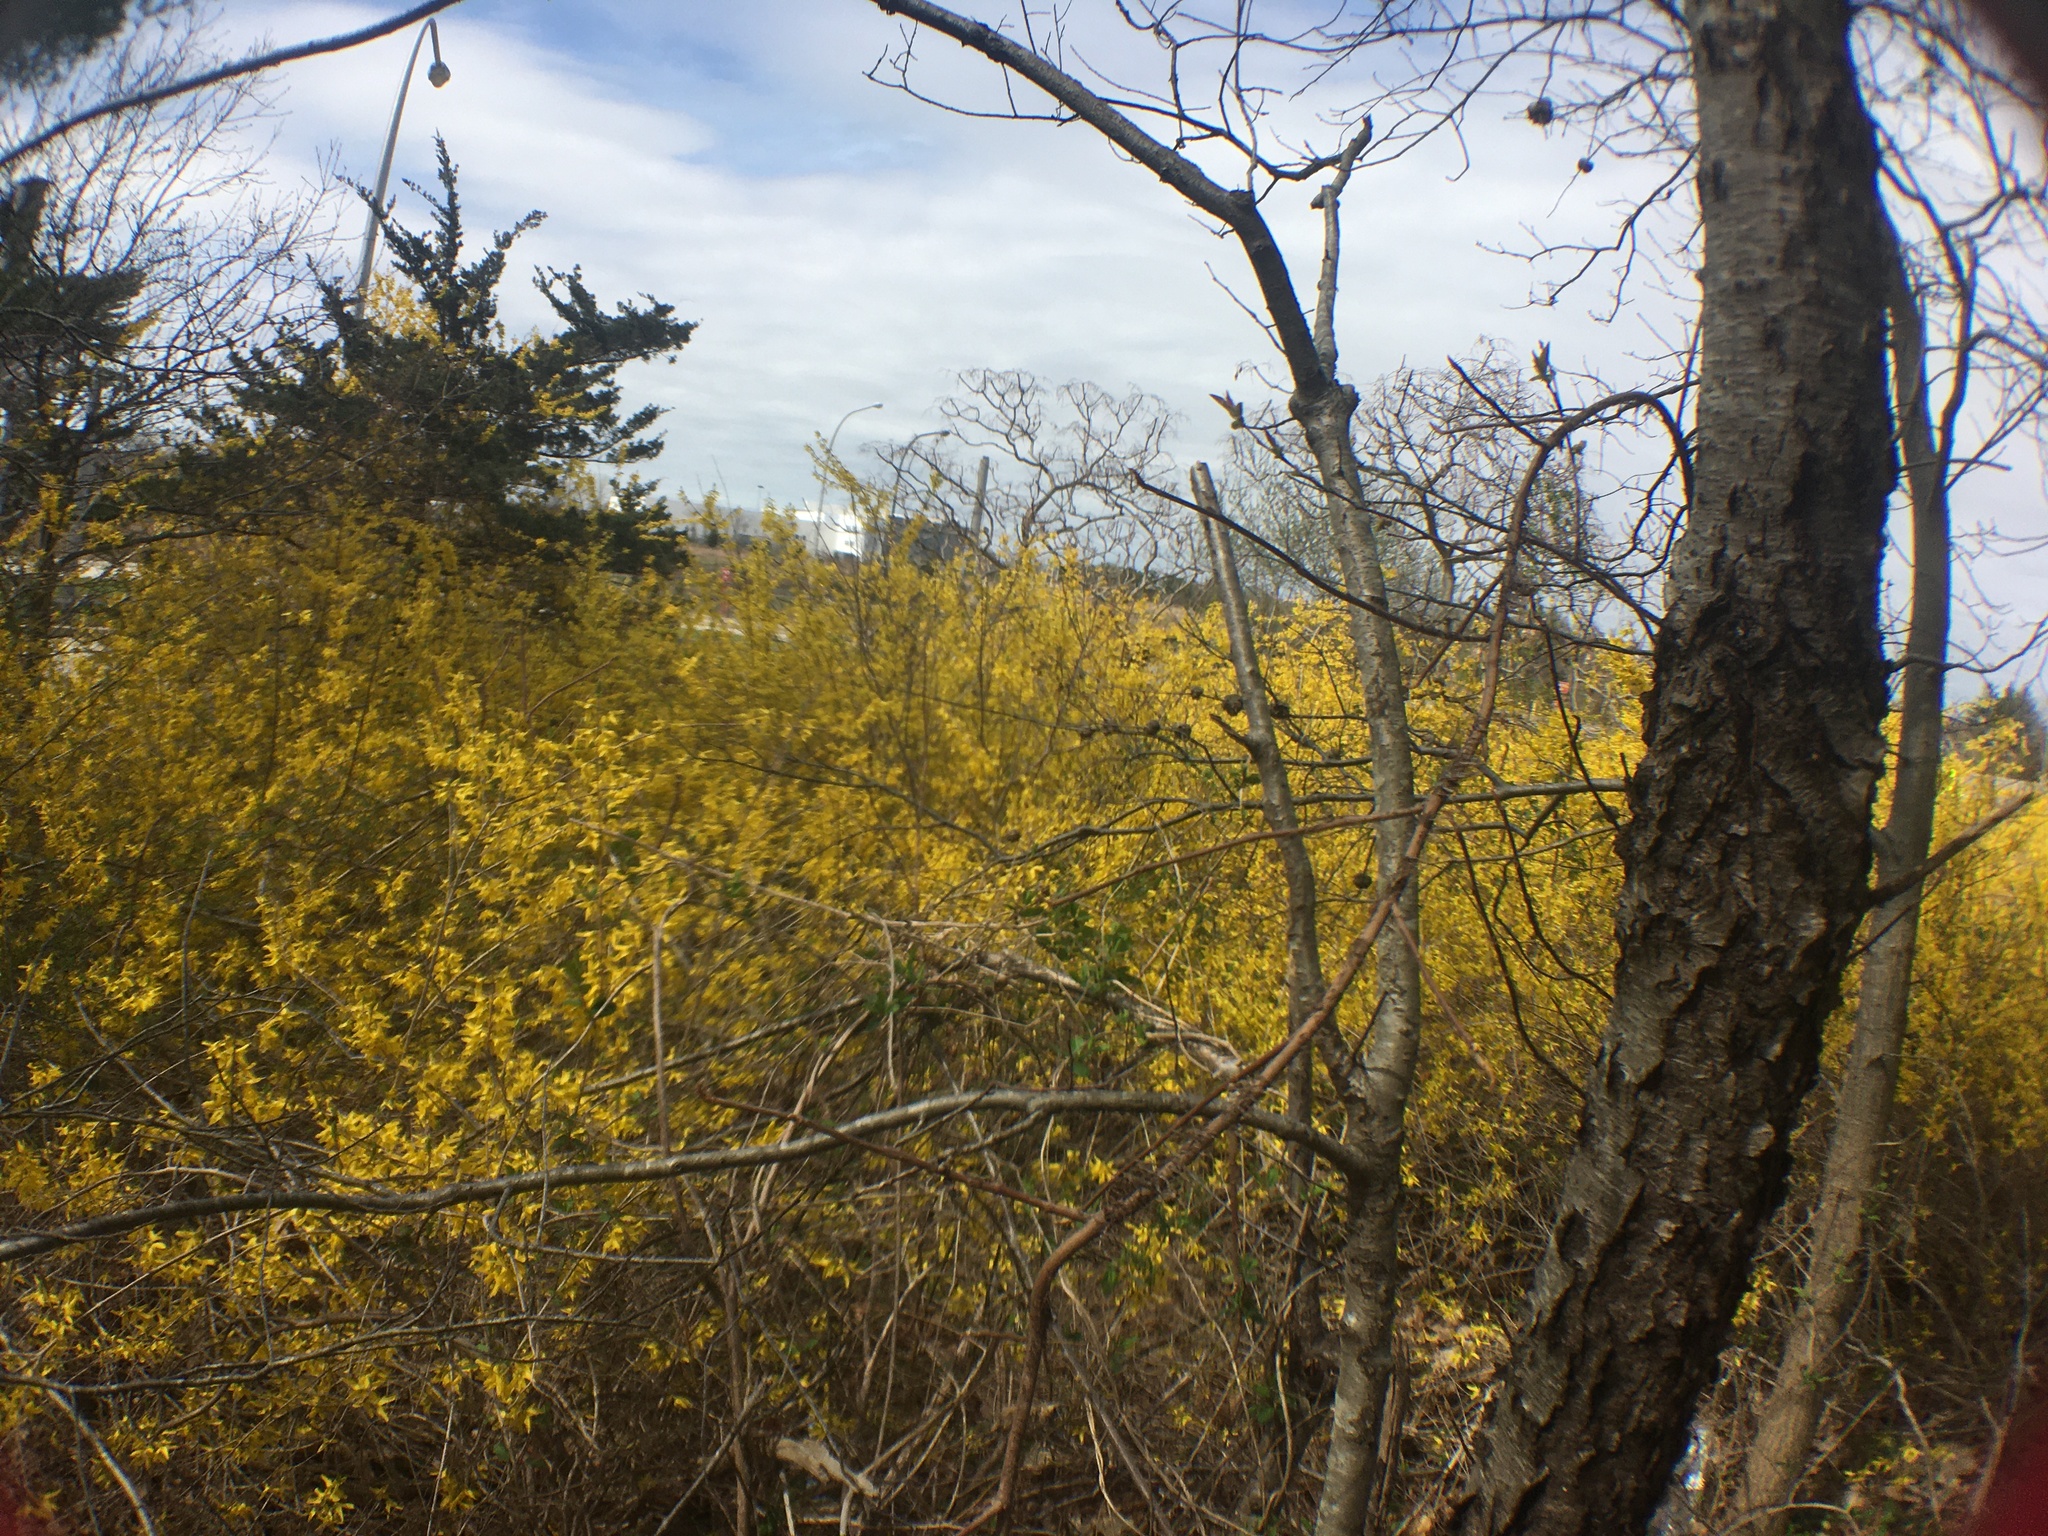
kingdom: Plantae
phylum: Tracheophyta
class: Magnoliopsida
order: Lamiales
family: Oleaceae
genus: Forsythia
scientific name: Forsythia intermedia
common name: Forsythia
